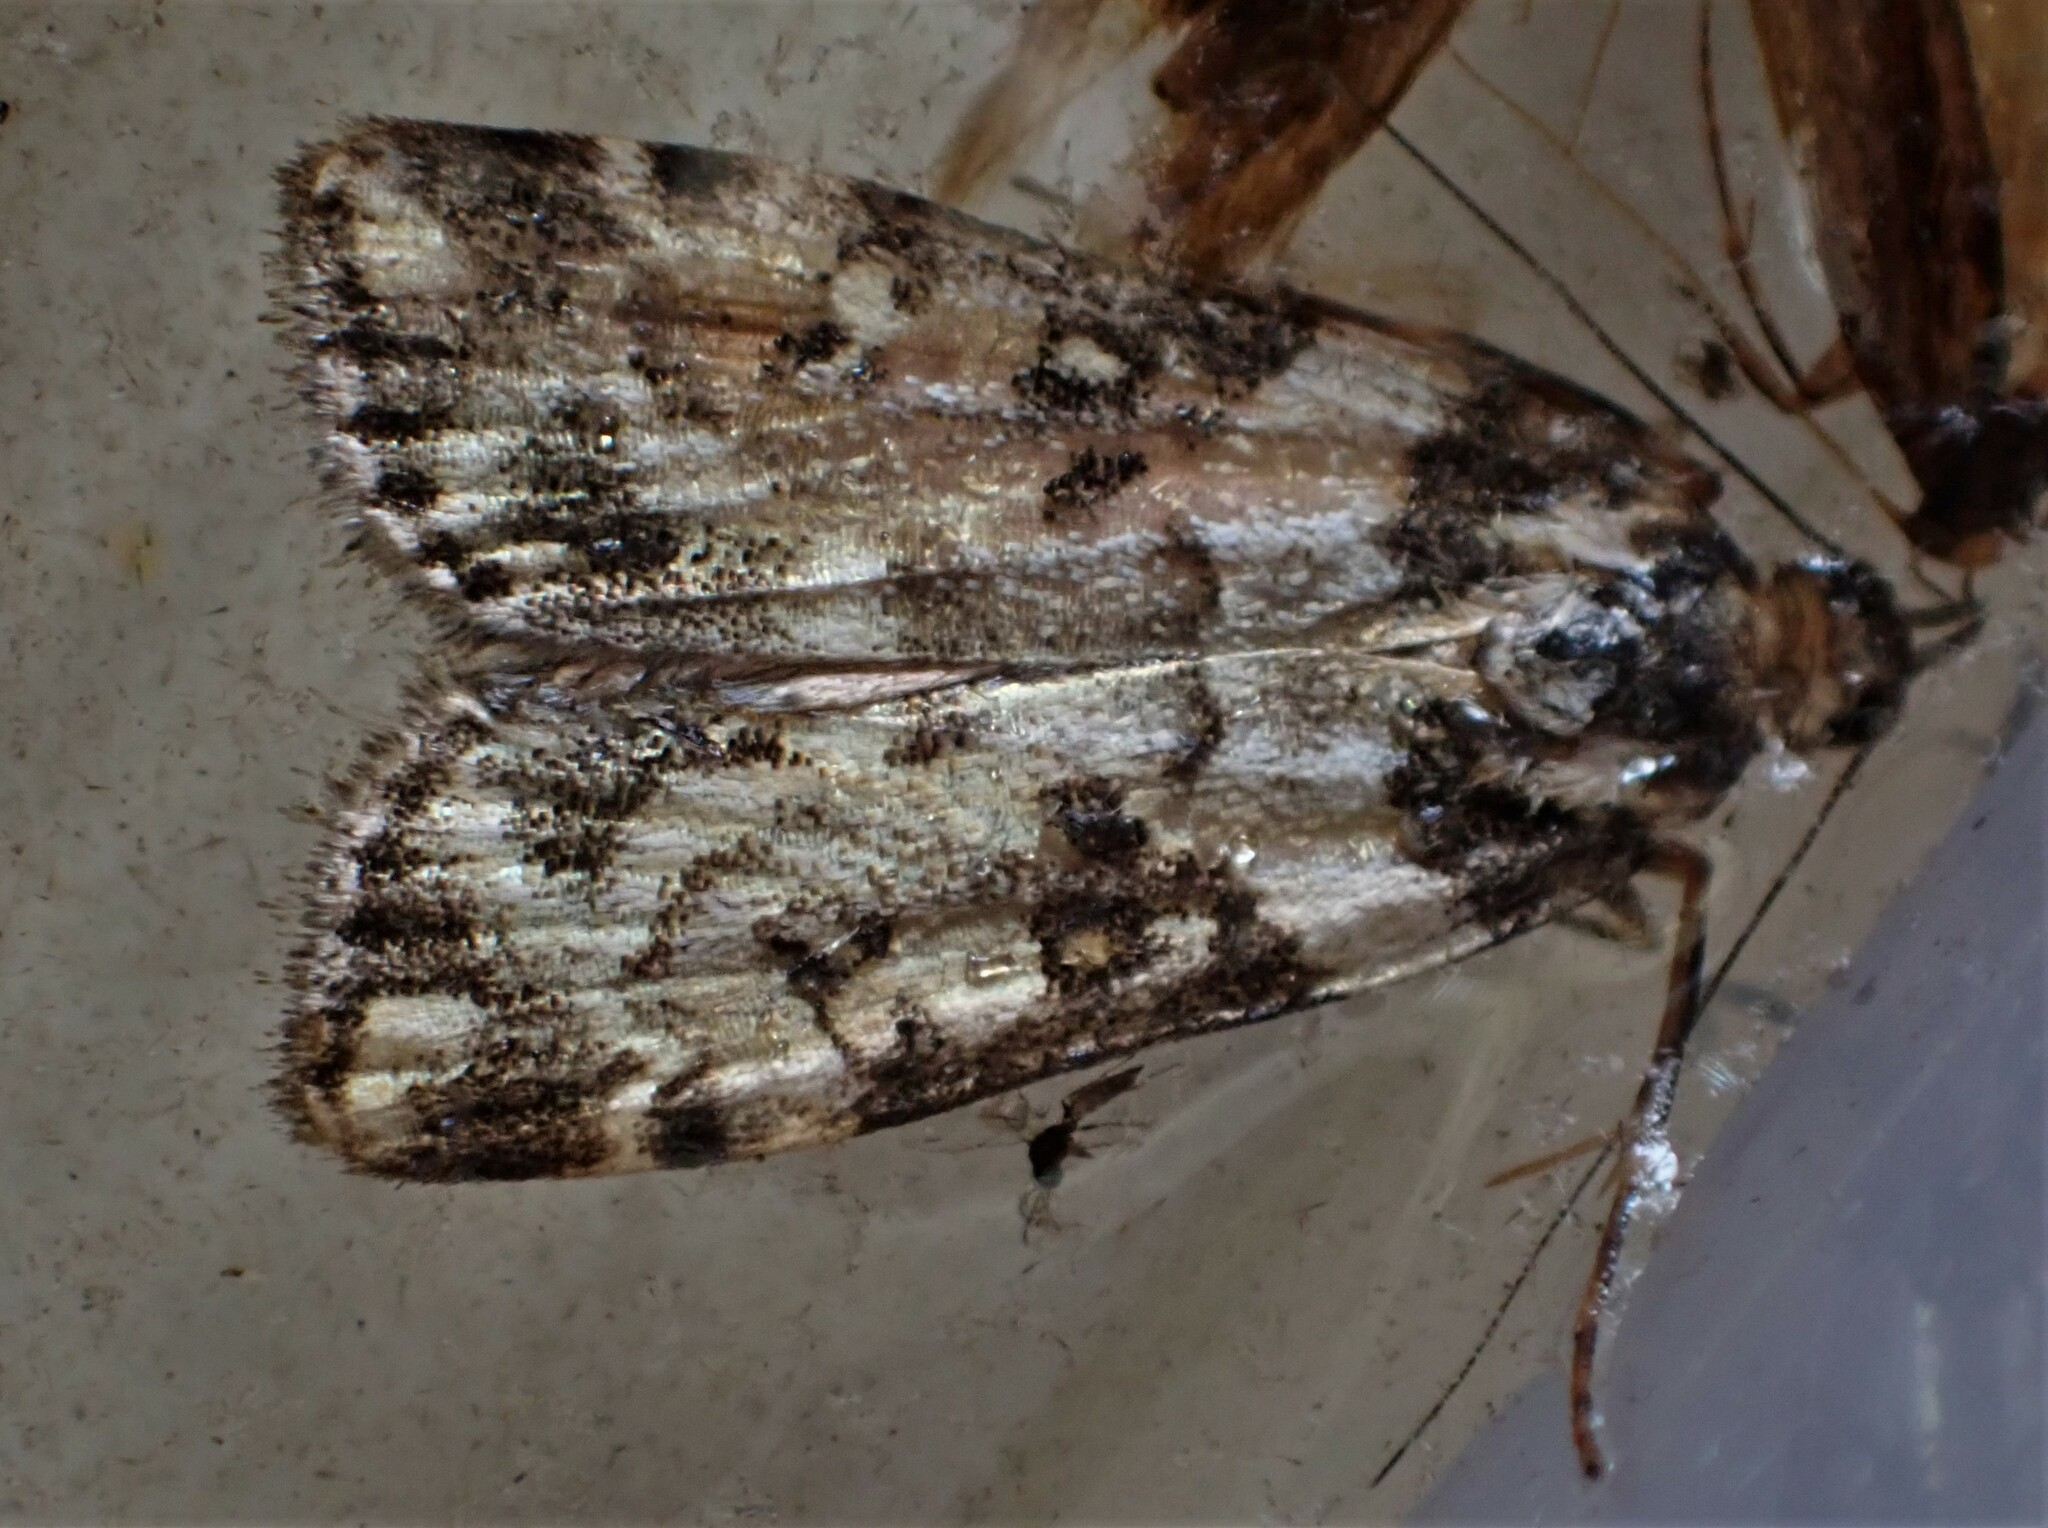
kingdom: Animalia
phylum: Arthropoda
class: Insecta
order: Lepidoptera
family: Crambidae
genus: Eudonia
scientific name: Eudonia diphtheralis
